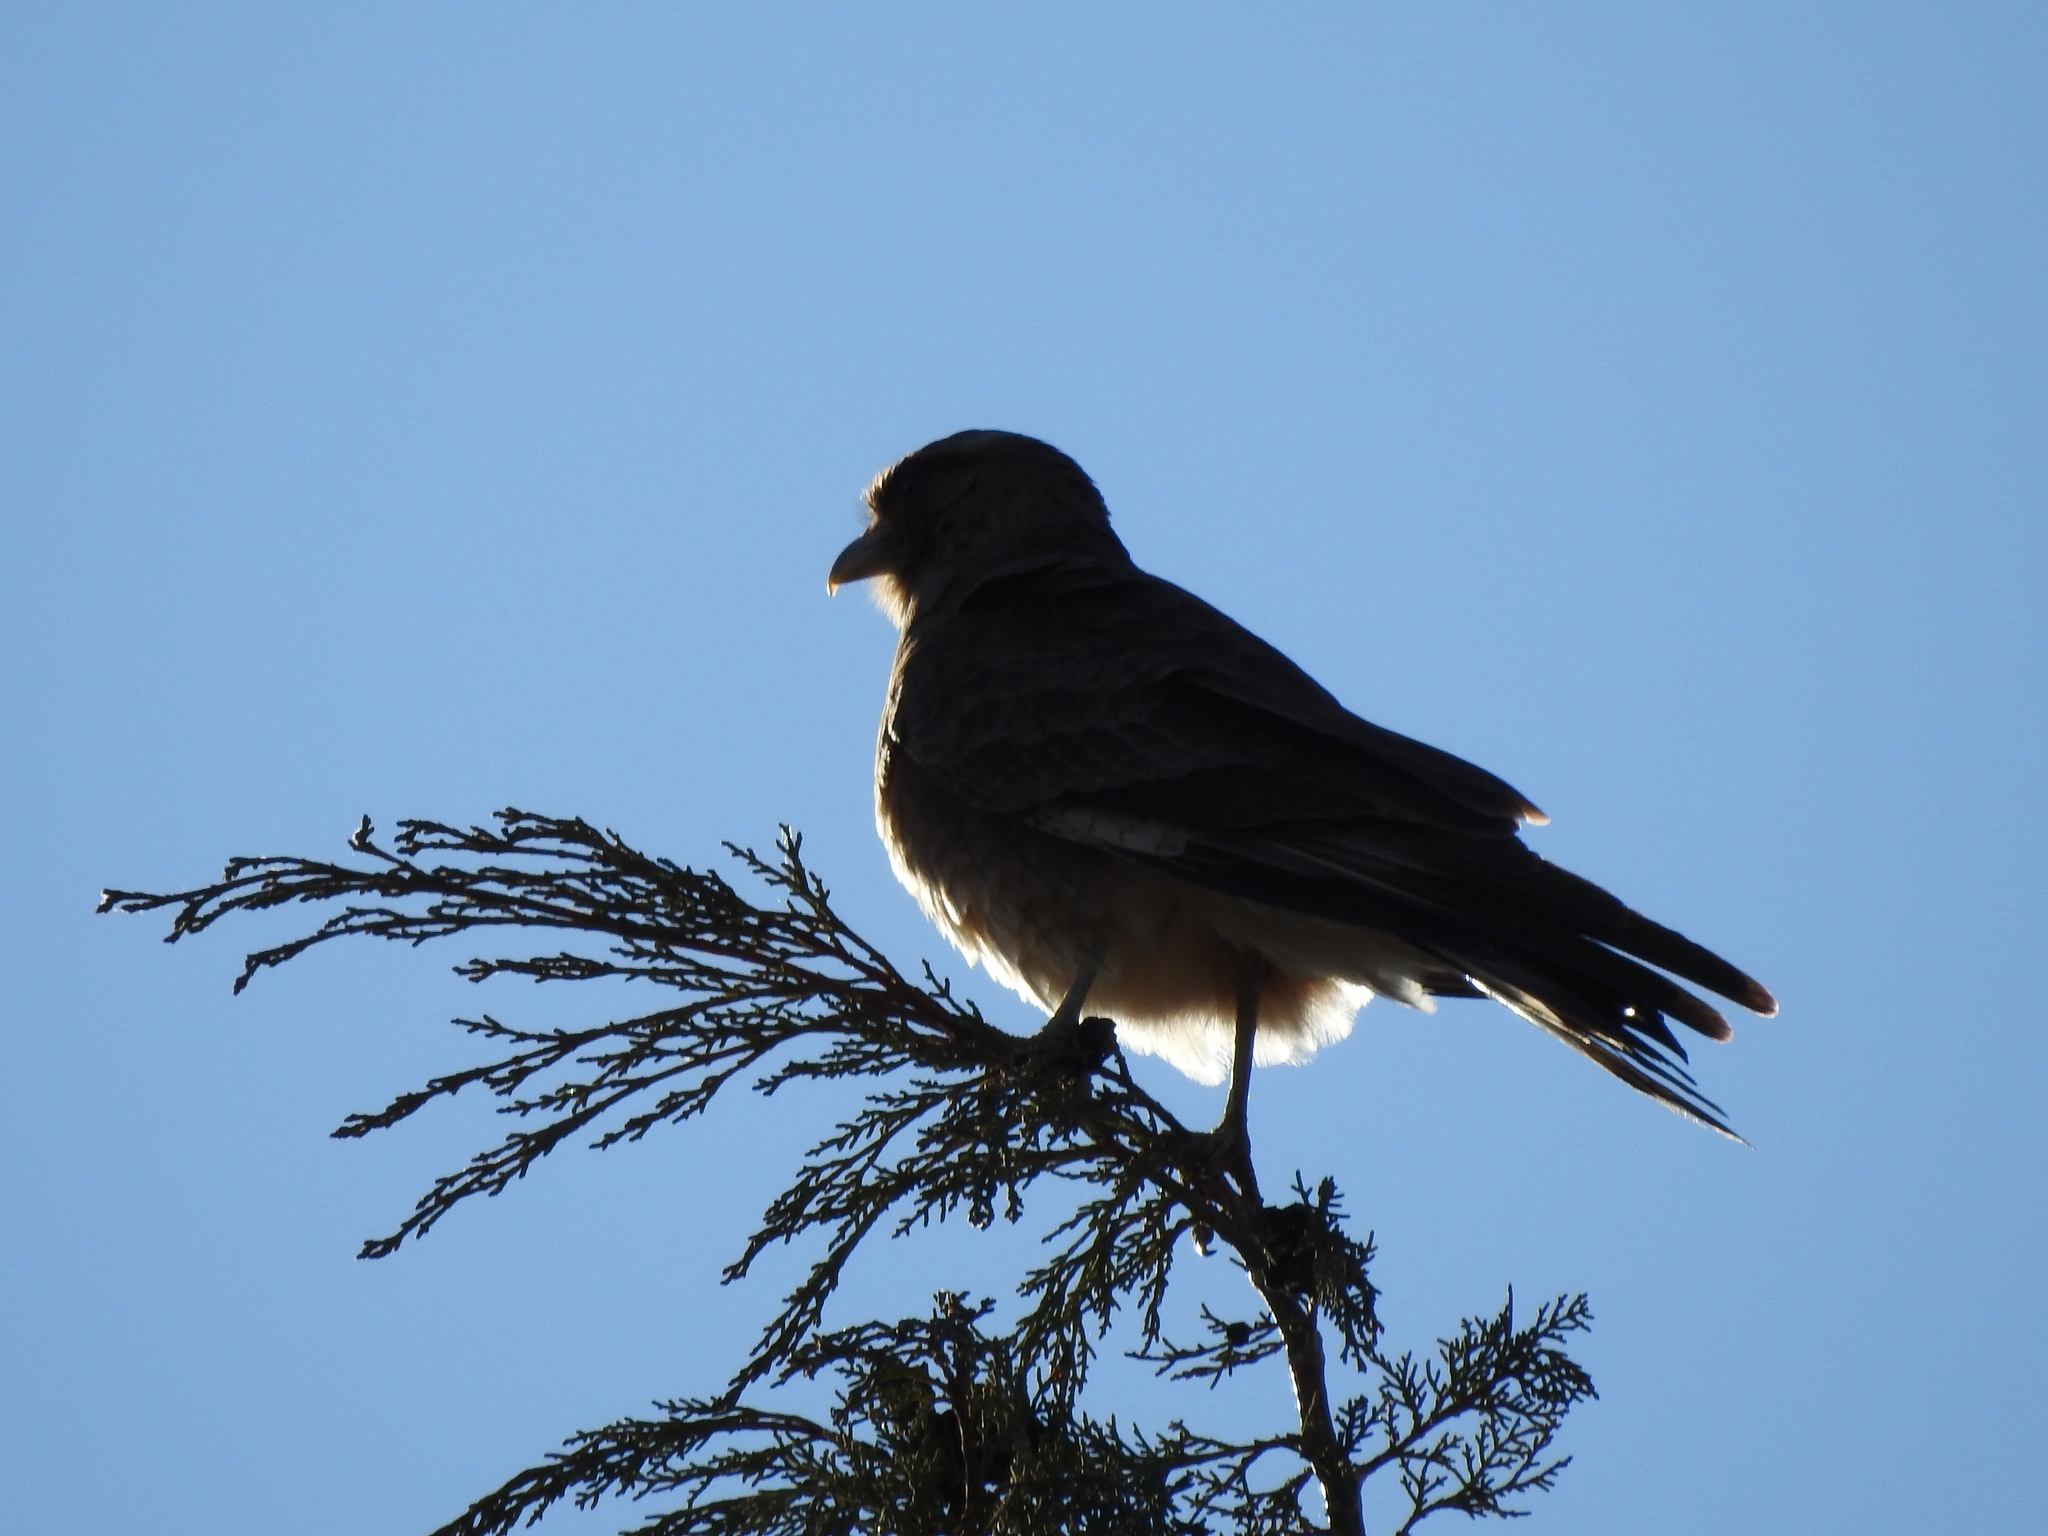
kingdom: Animalia
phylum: Chordata
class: Aves
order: Falconiformes
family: Falconidae
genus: Daptrius
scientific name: Daptrius
